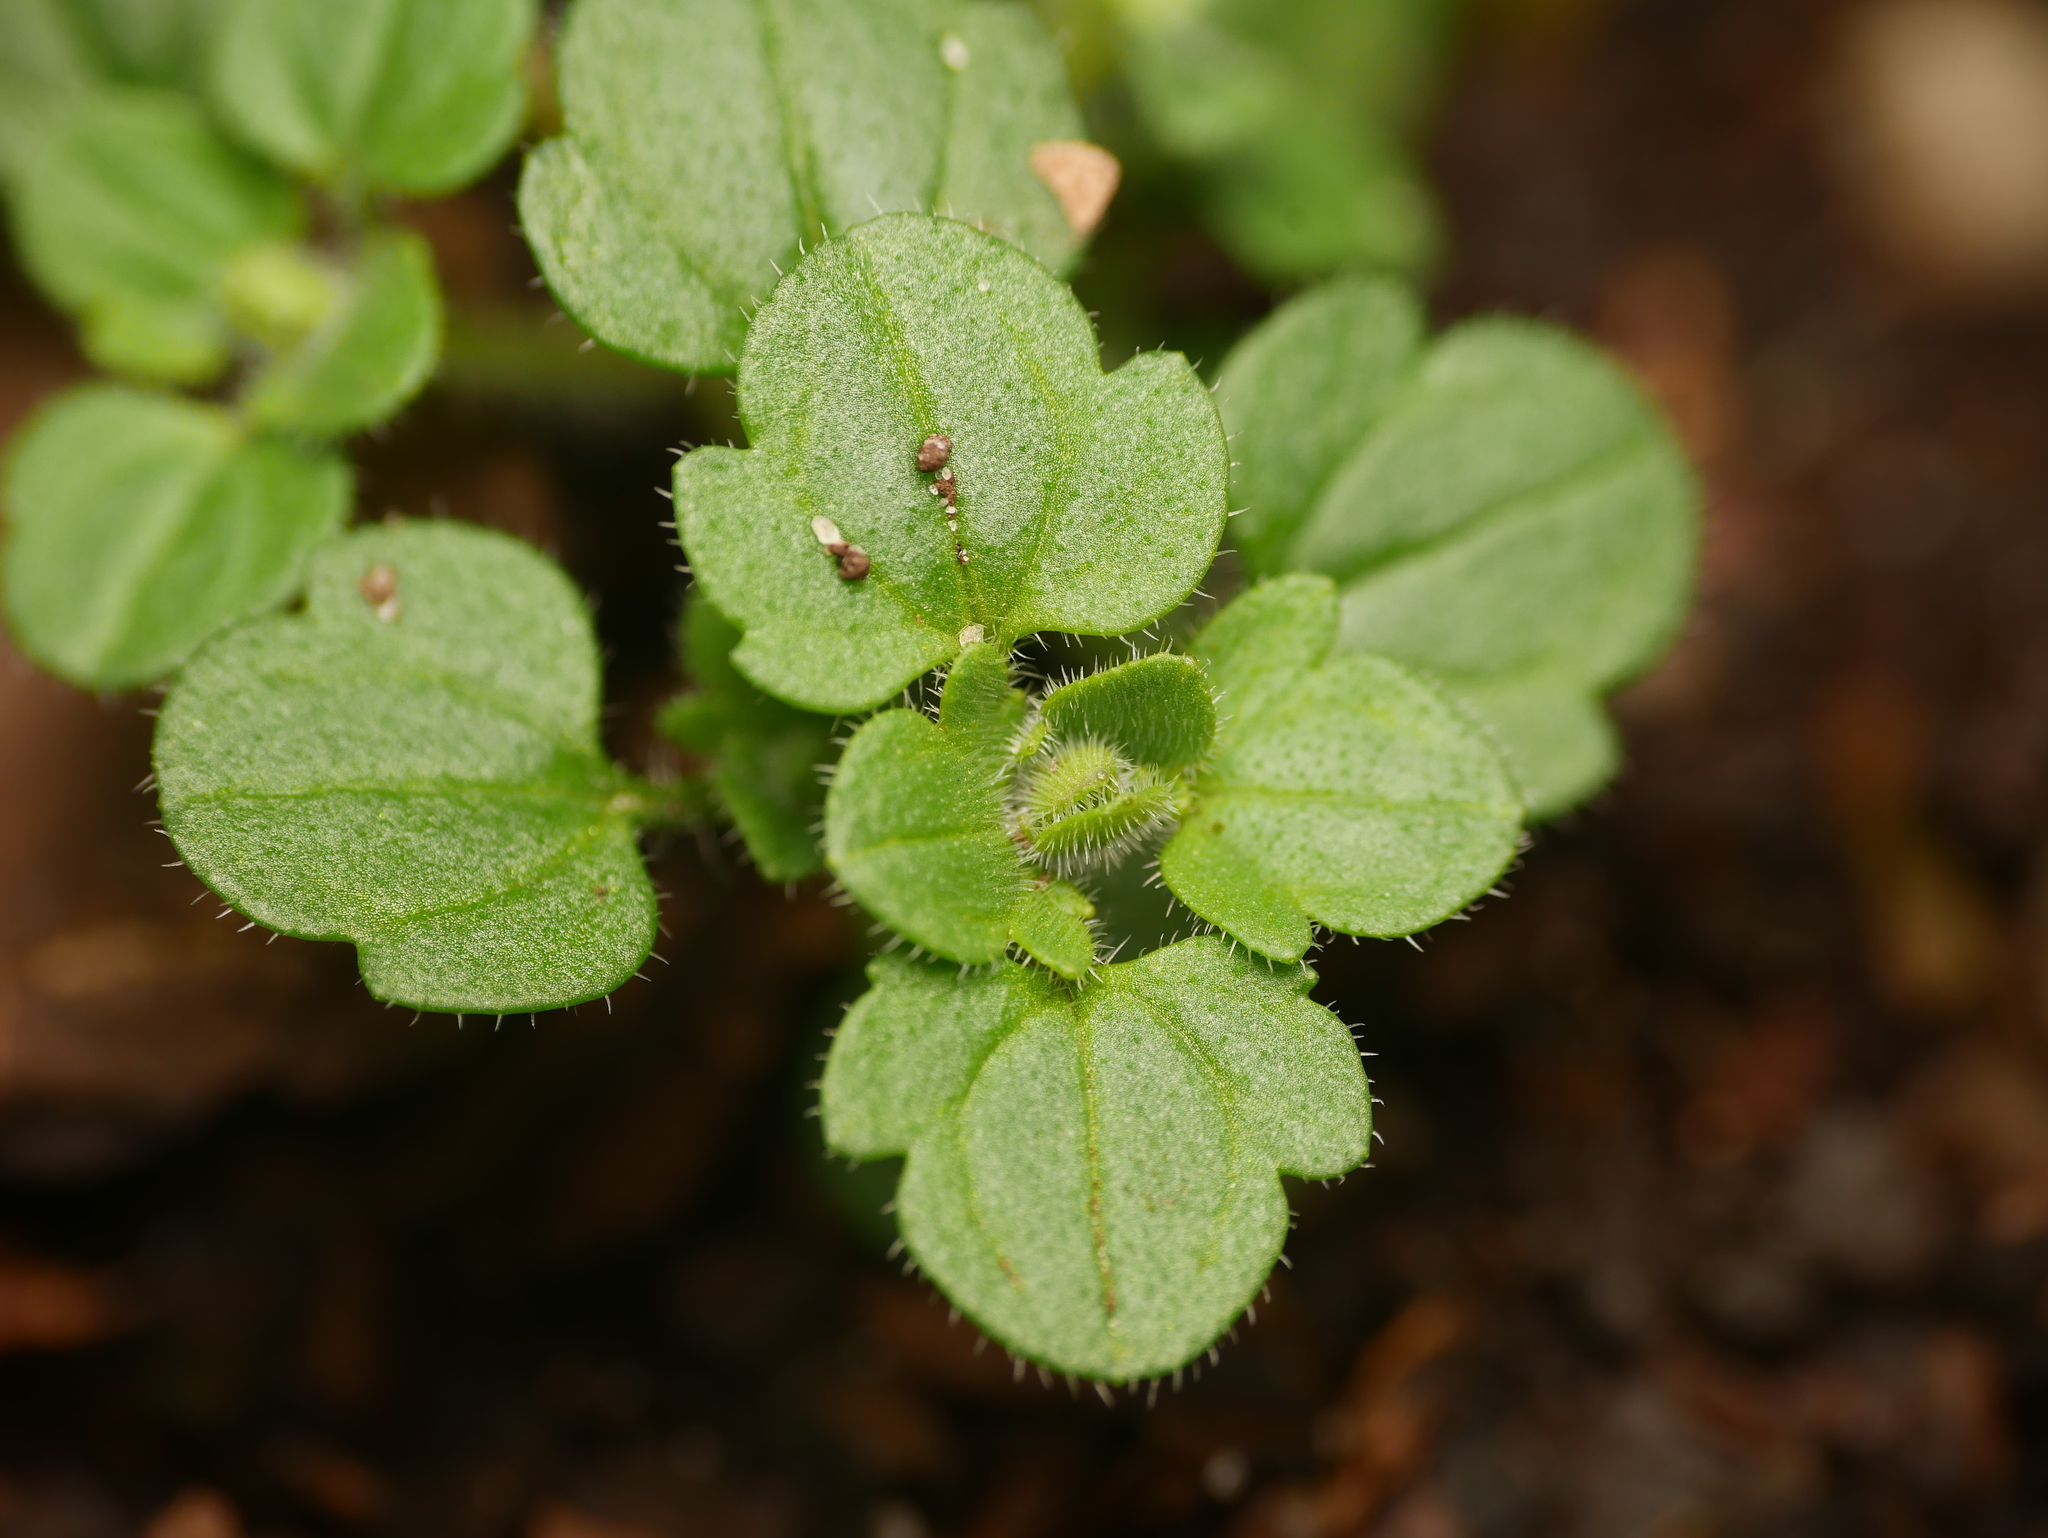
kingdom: Plantae
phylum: Tracheophyta
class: Magnoliopsida
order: Lamiales
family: Plantaginaceae
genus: Veronica
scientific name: Veronica hederifolia
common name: Ivy-leaved speedwell
